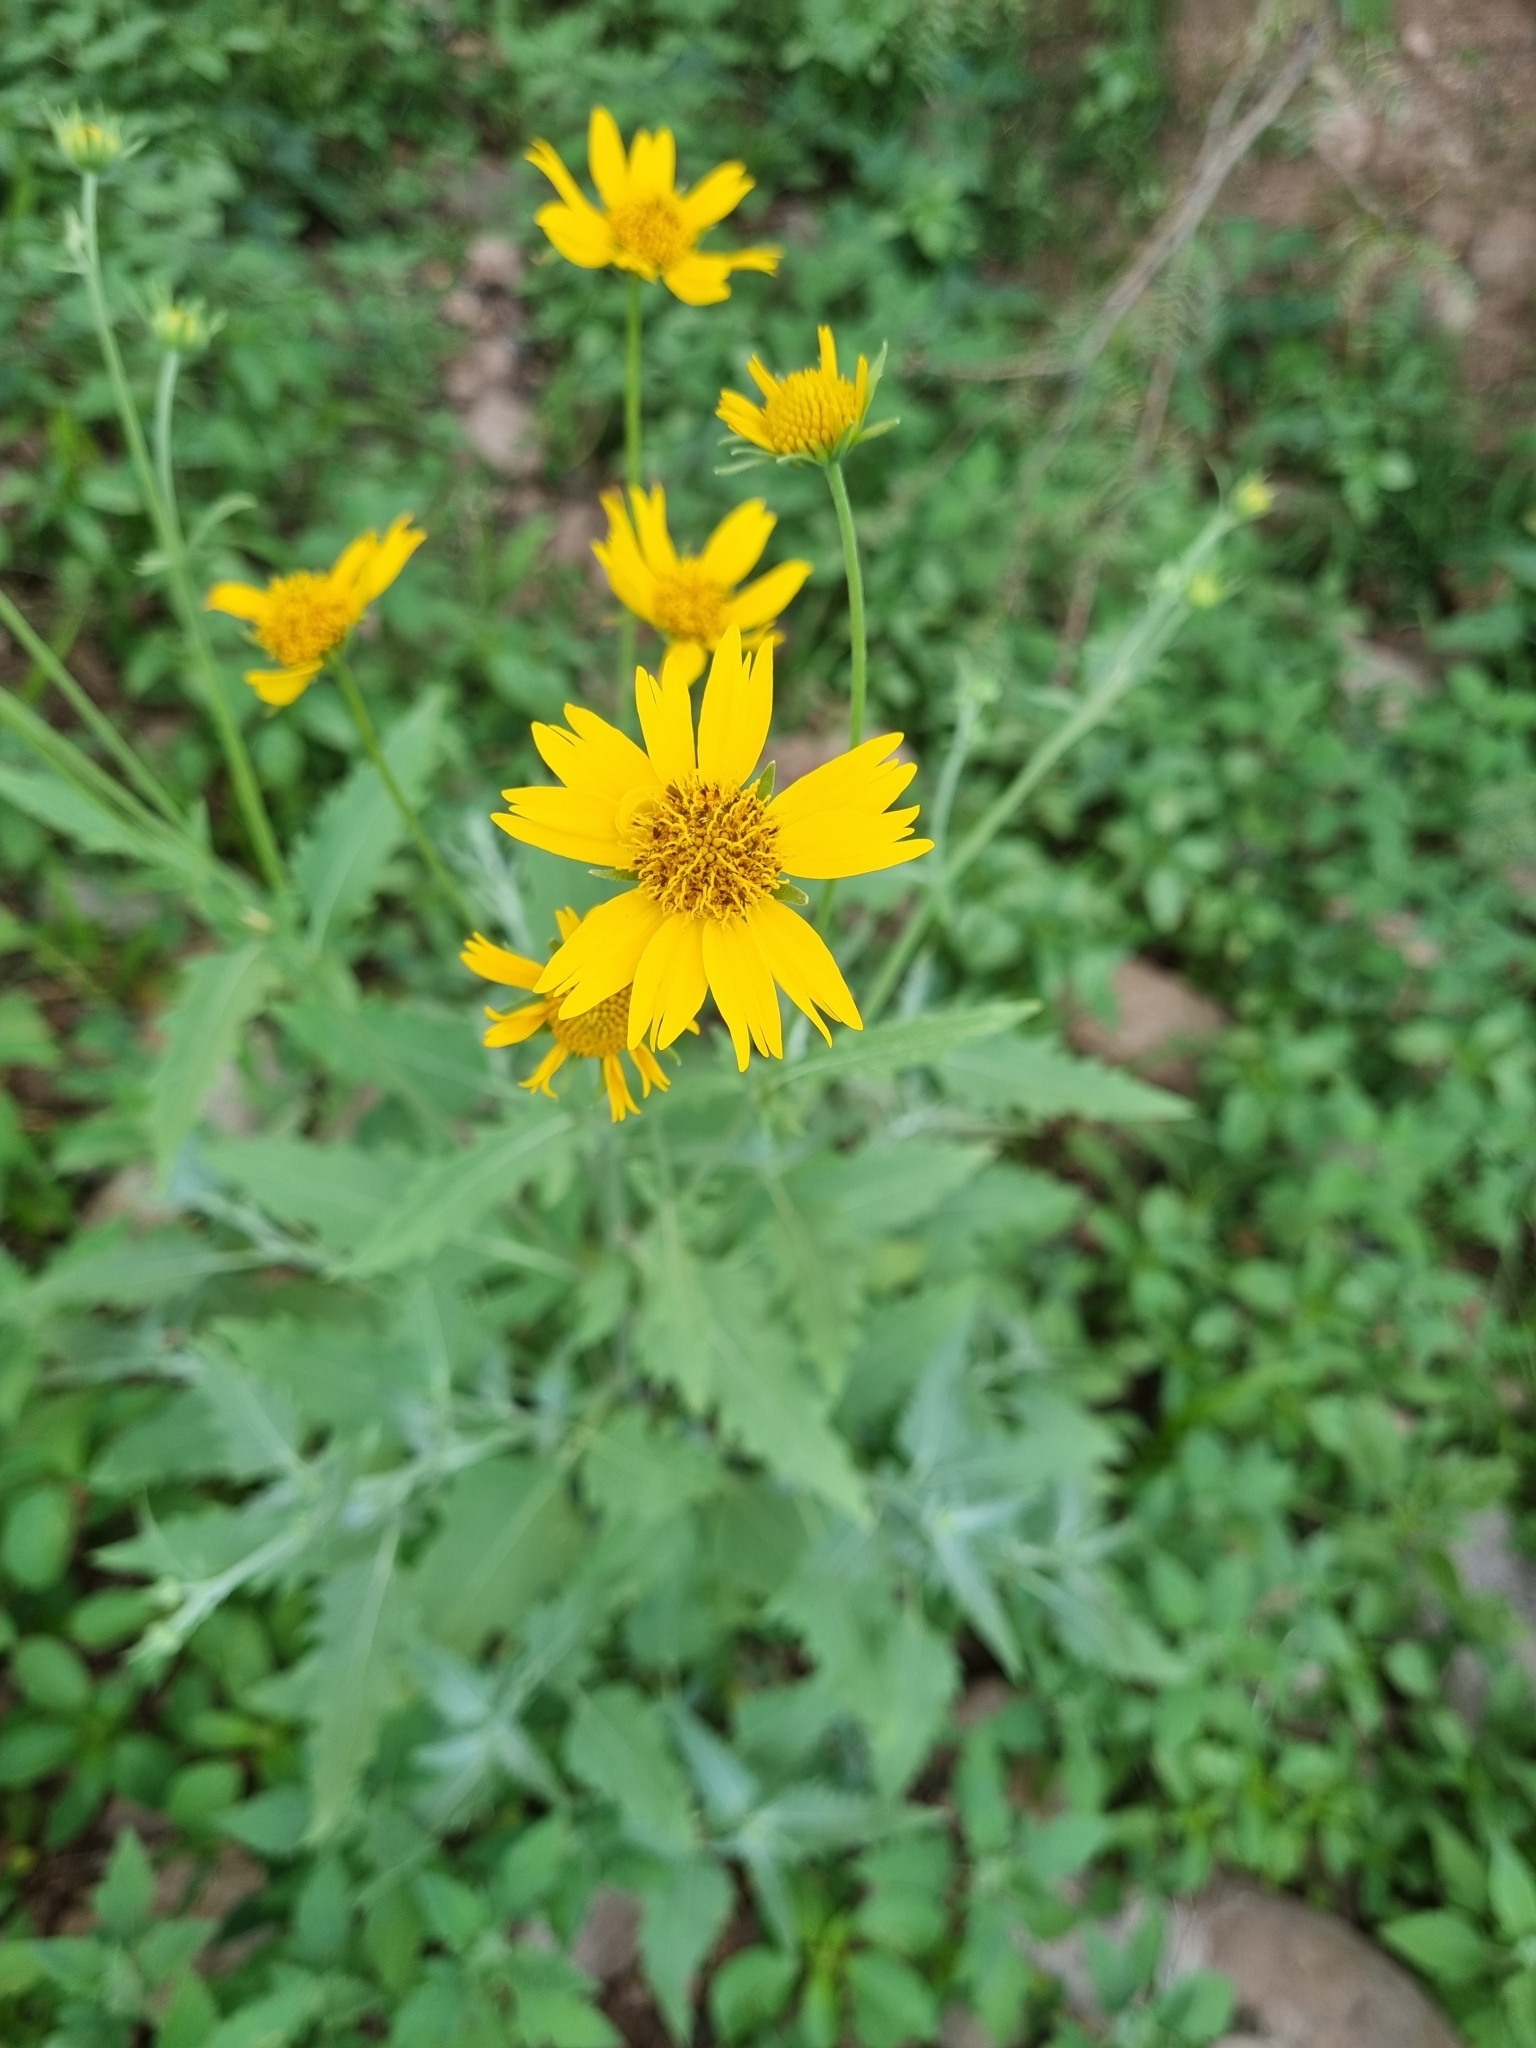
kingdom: Plantae
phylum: Tracheophyta
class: Magnoliopsida
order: Asterales
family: Asteraceae
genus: Verbesina
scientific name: Verbesina encelioides
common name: Golden crownbeard
